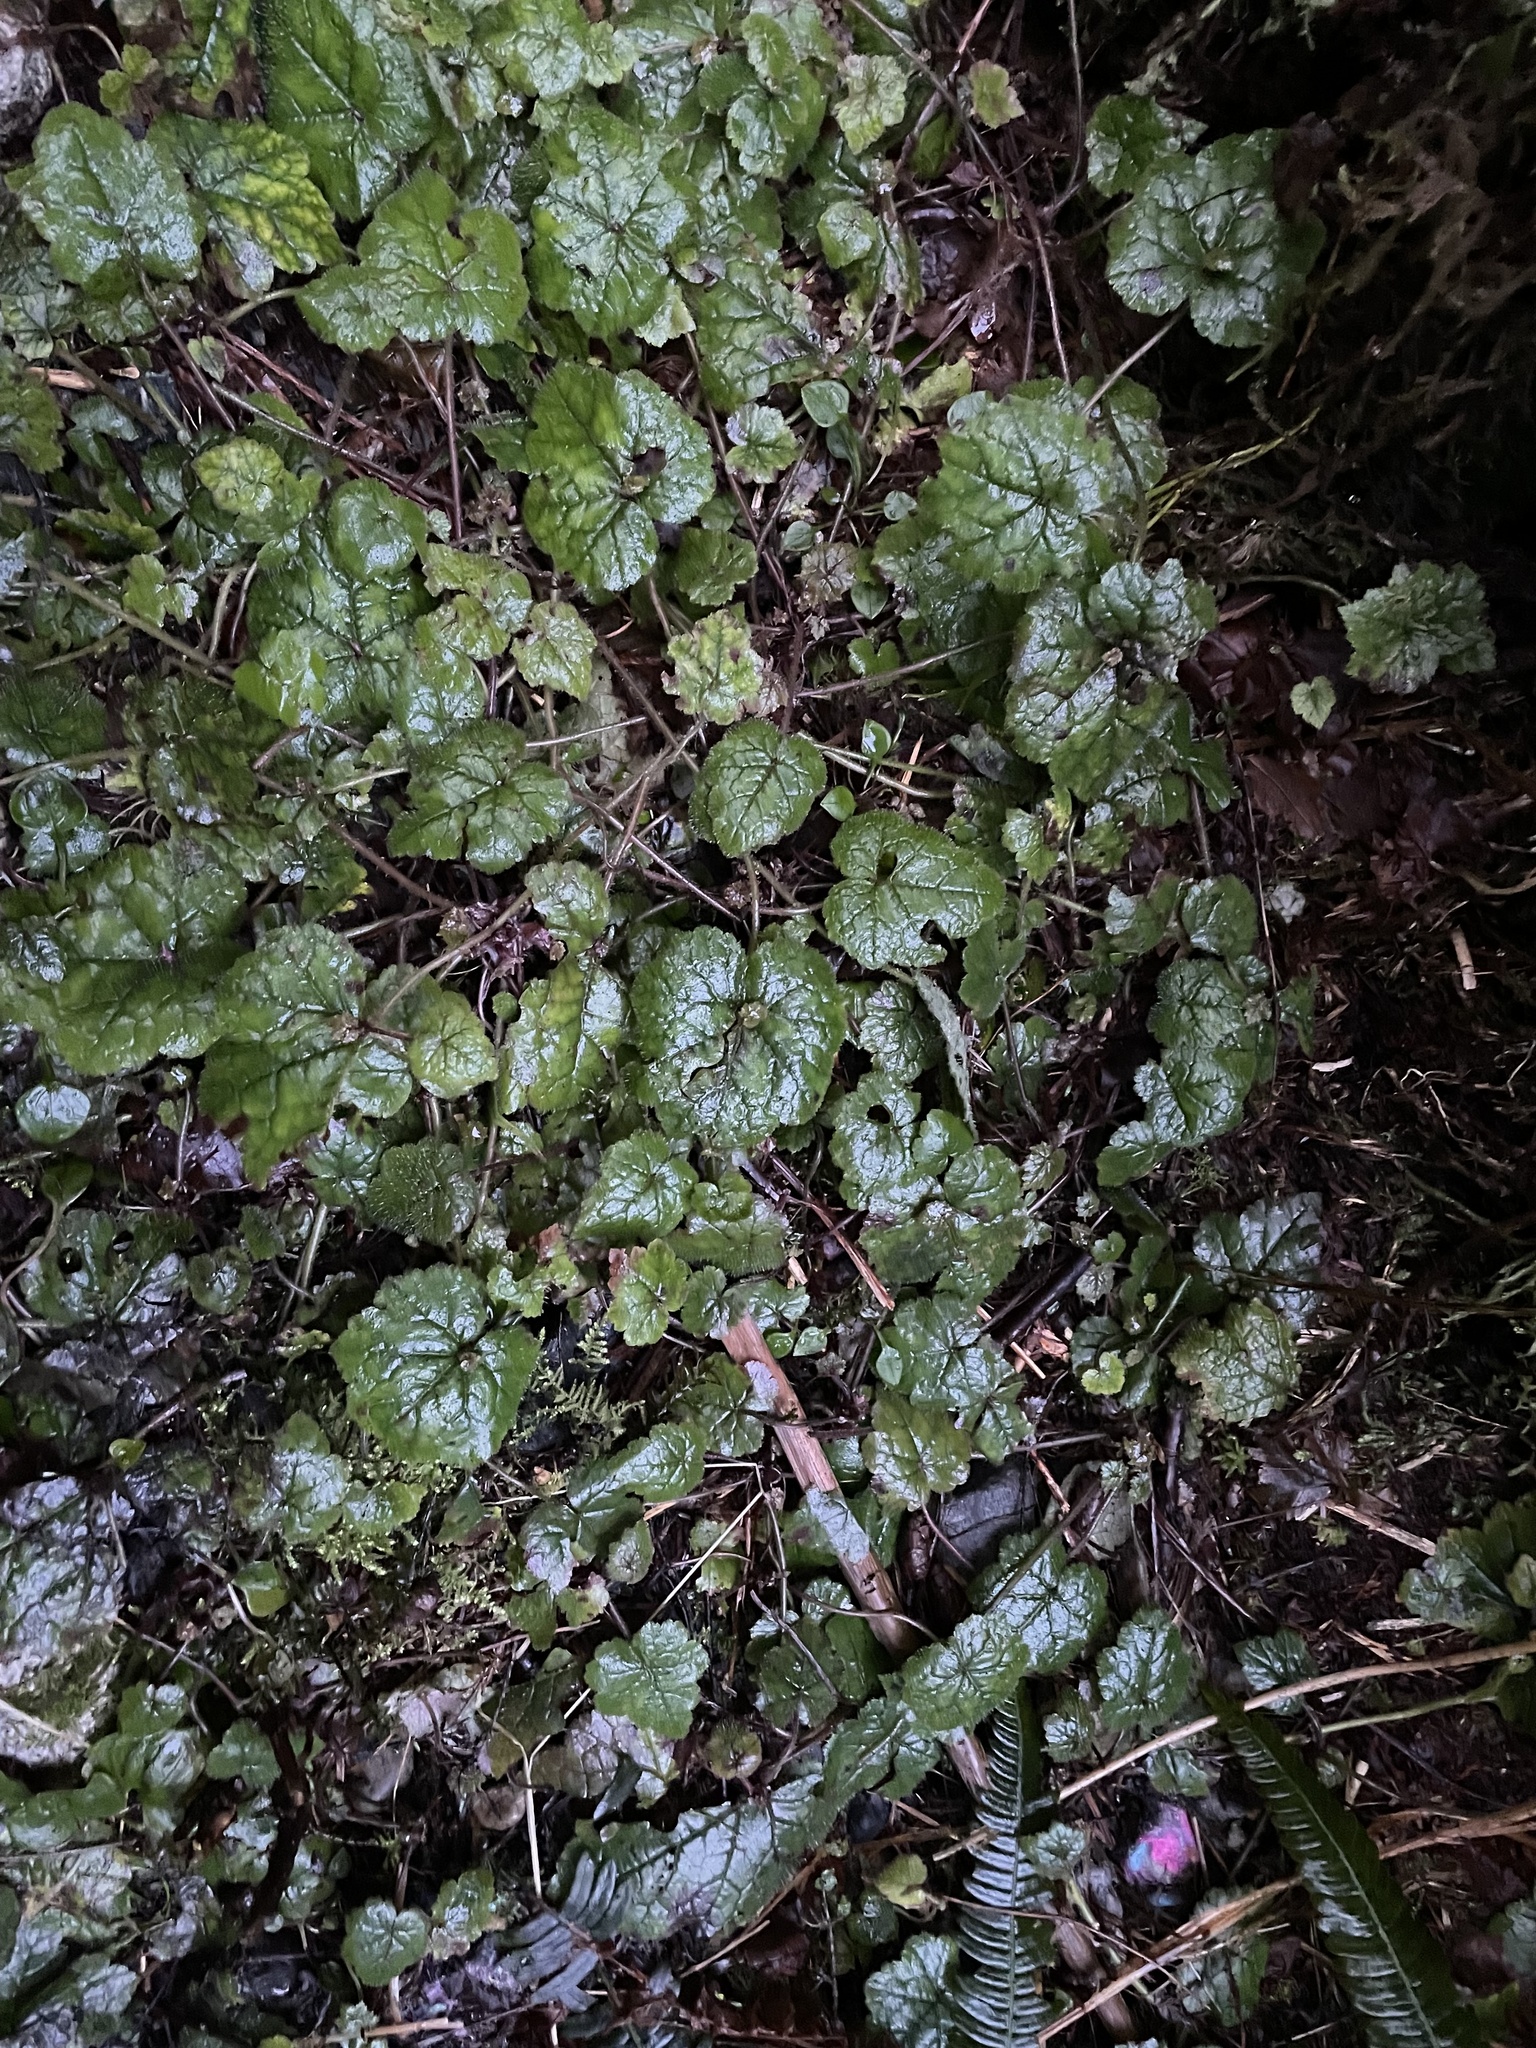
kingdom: Plantae
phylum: Tracheophyta
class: Magnoliopsida
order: Saxifragales
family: Saxifragaceae
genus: Tolmiea
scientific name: Tolmiea menziesii
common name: Pick-a-back-plant
